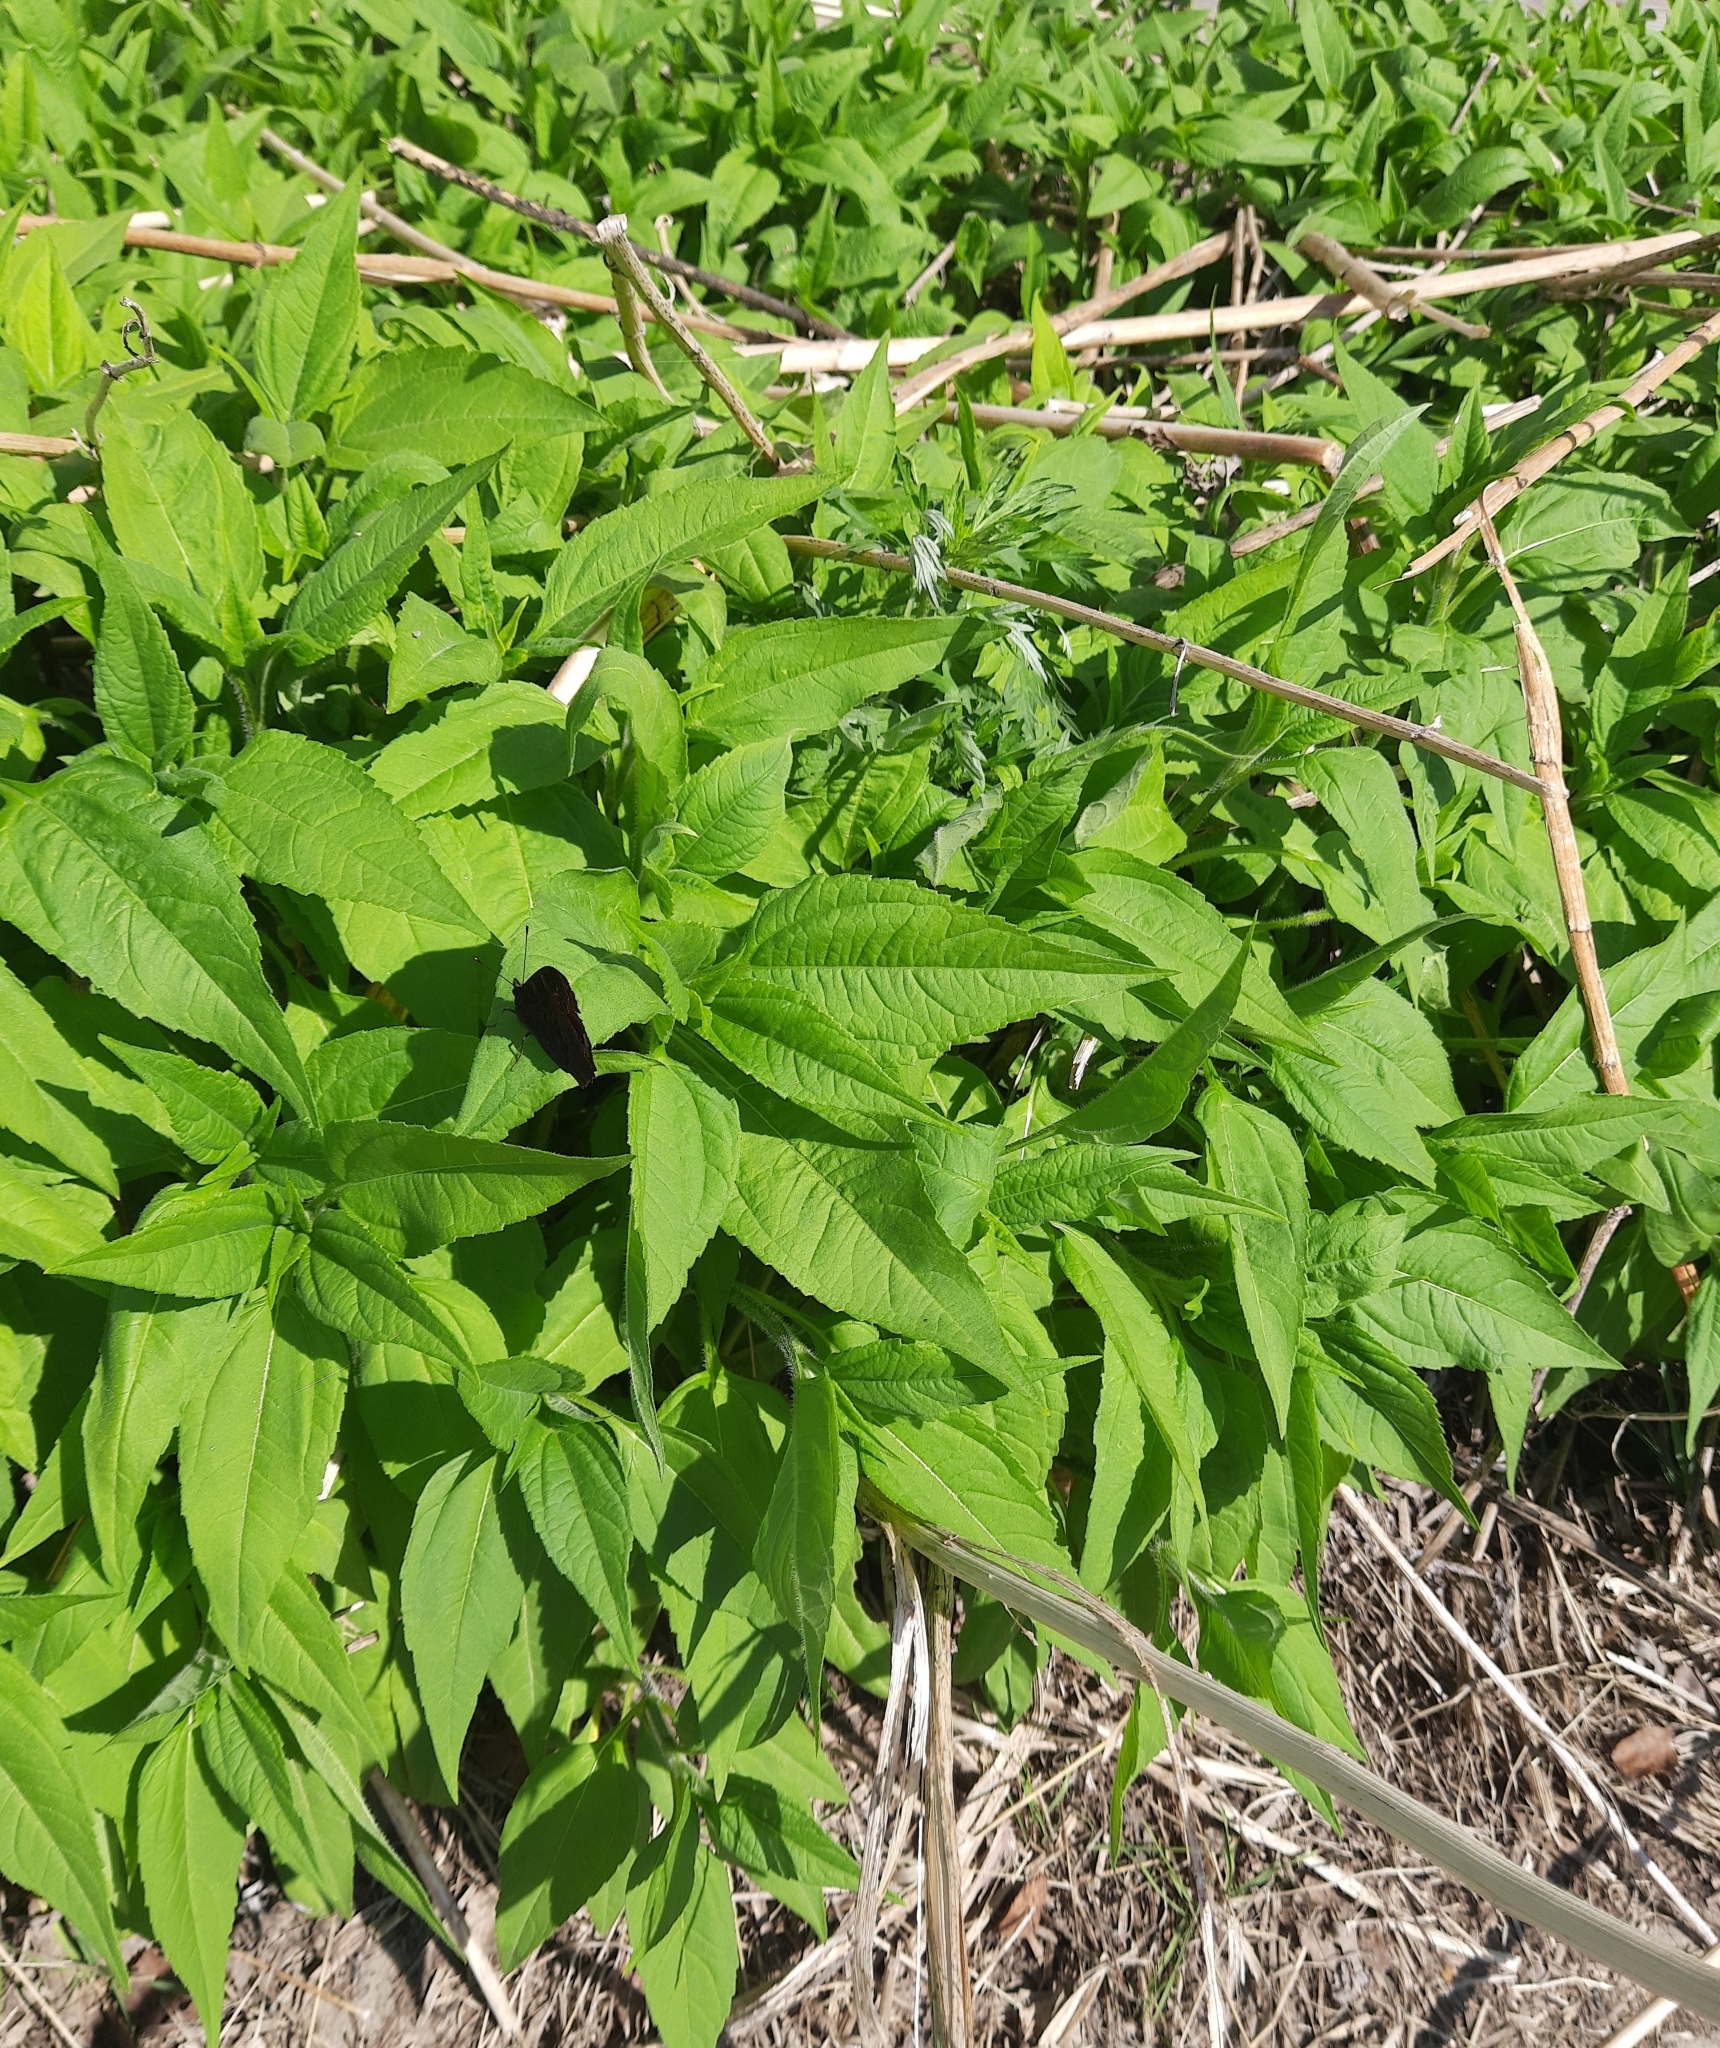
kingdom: Plantae
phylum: Tracheophyta
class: Magnoliopsida
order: Asterales
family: Asteraceae
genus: Helianthus
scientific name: Helianthus tuberosus
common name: Jerusalem artichoke
